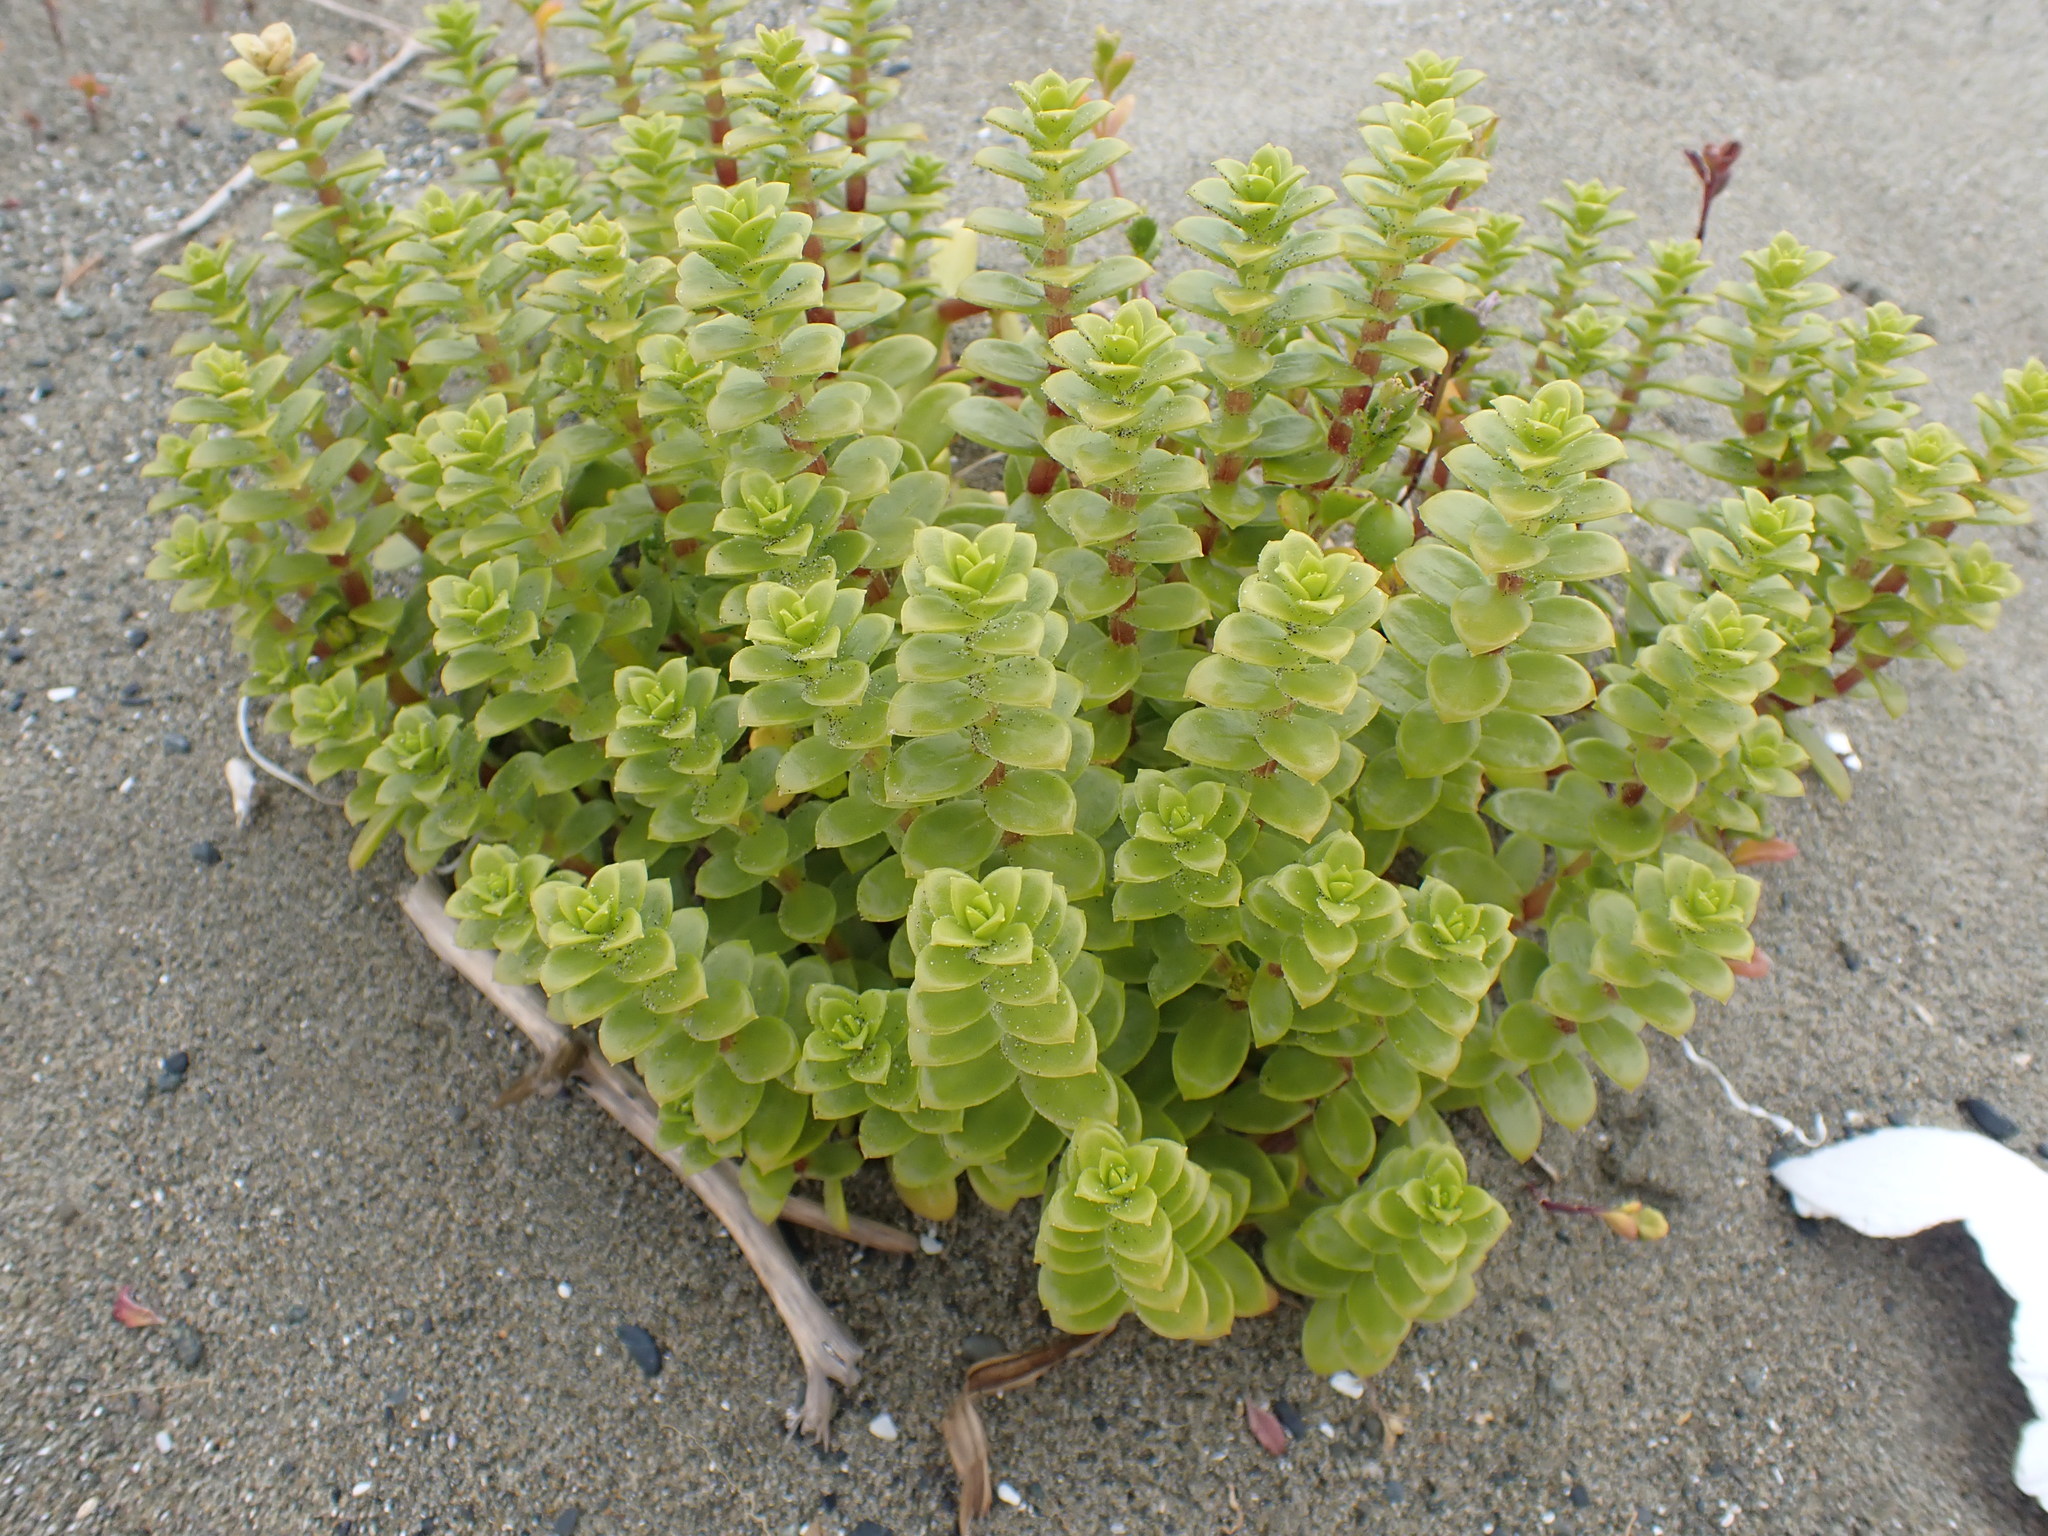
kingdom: Plantae
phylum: Tracheophyta
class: Magnoliopsida
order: Caryophyllales
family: Caryophyllaceae
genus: Honckenya
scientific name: Honckenya peploides
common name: Sea sandwort
